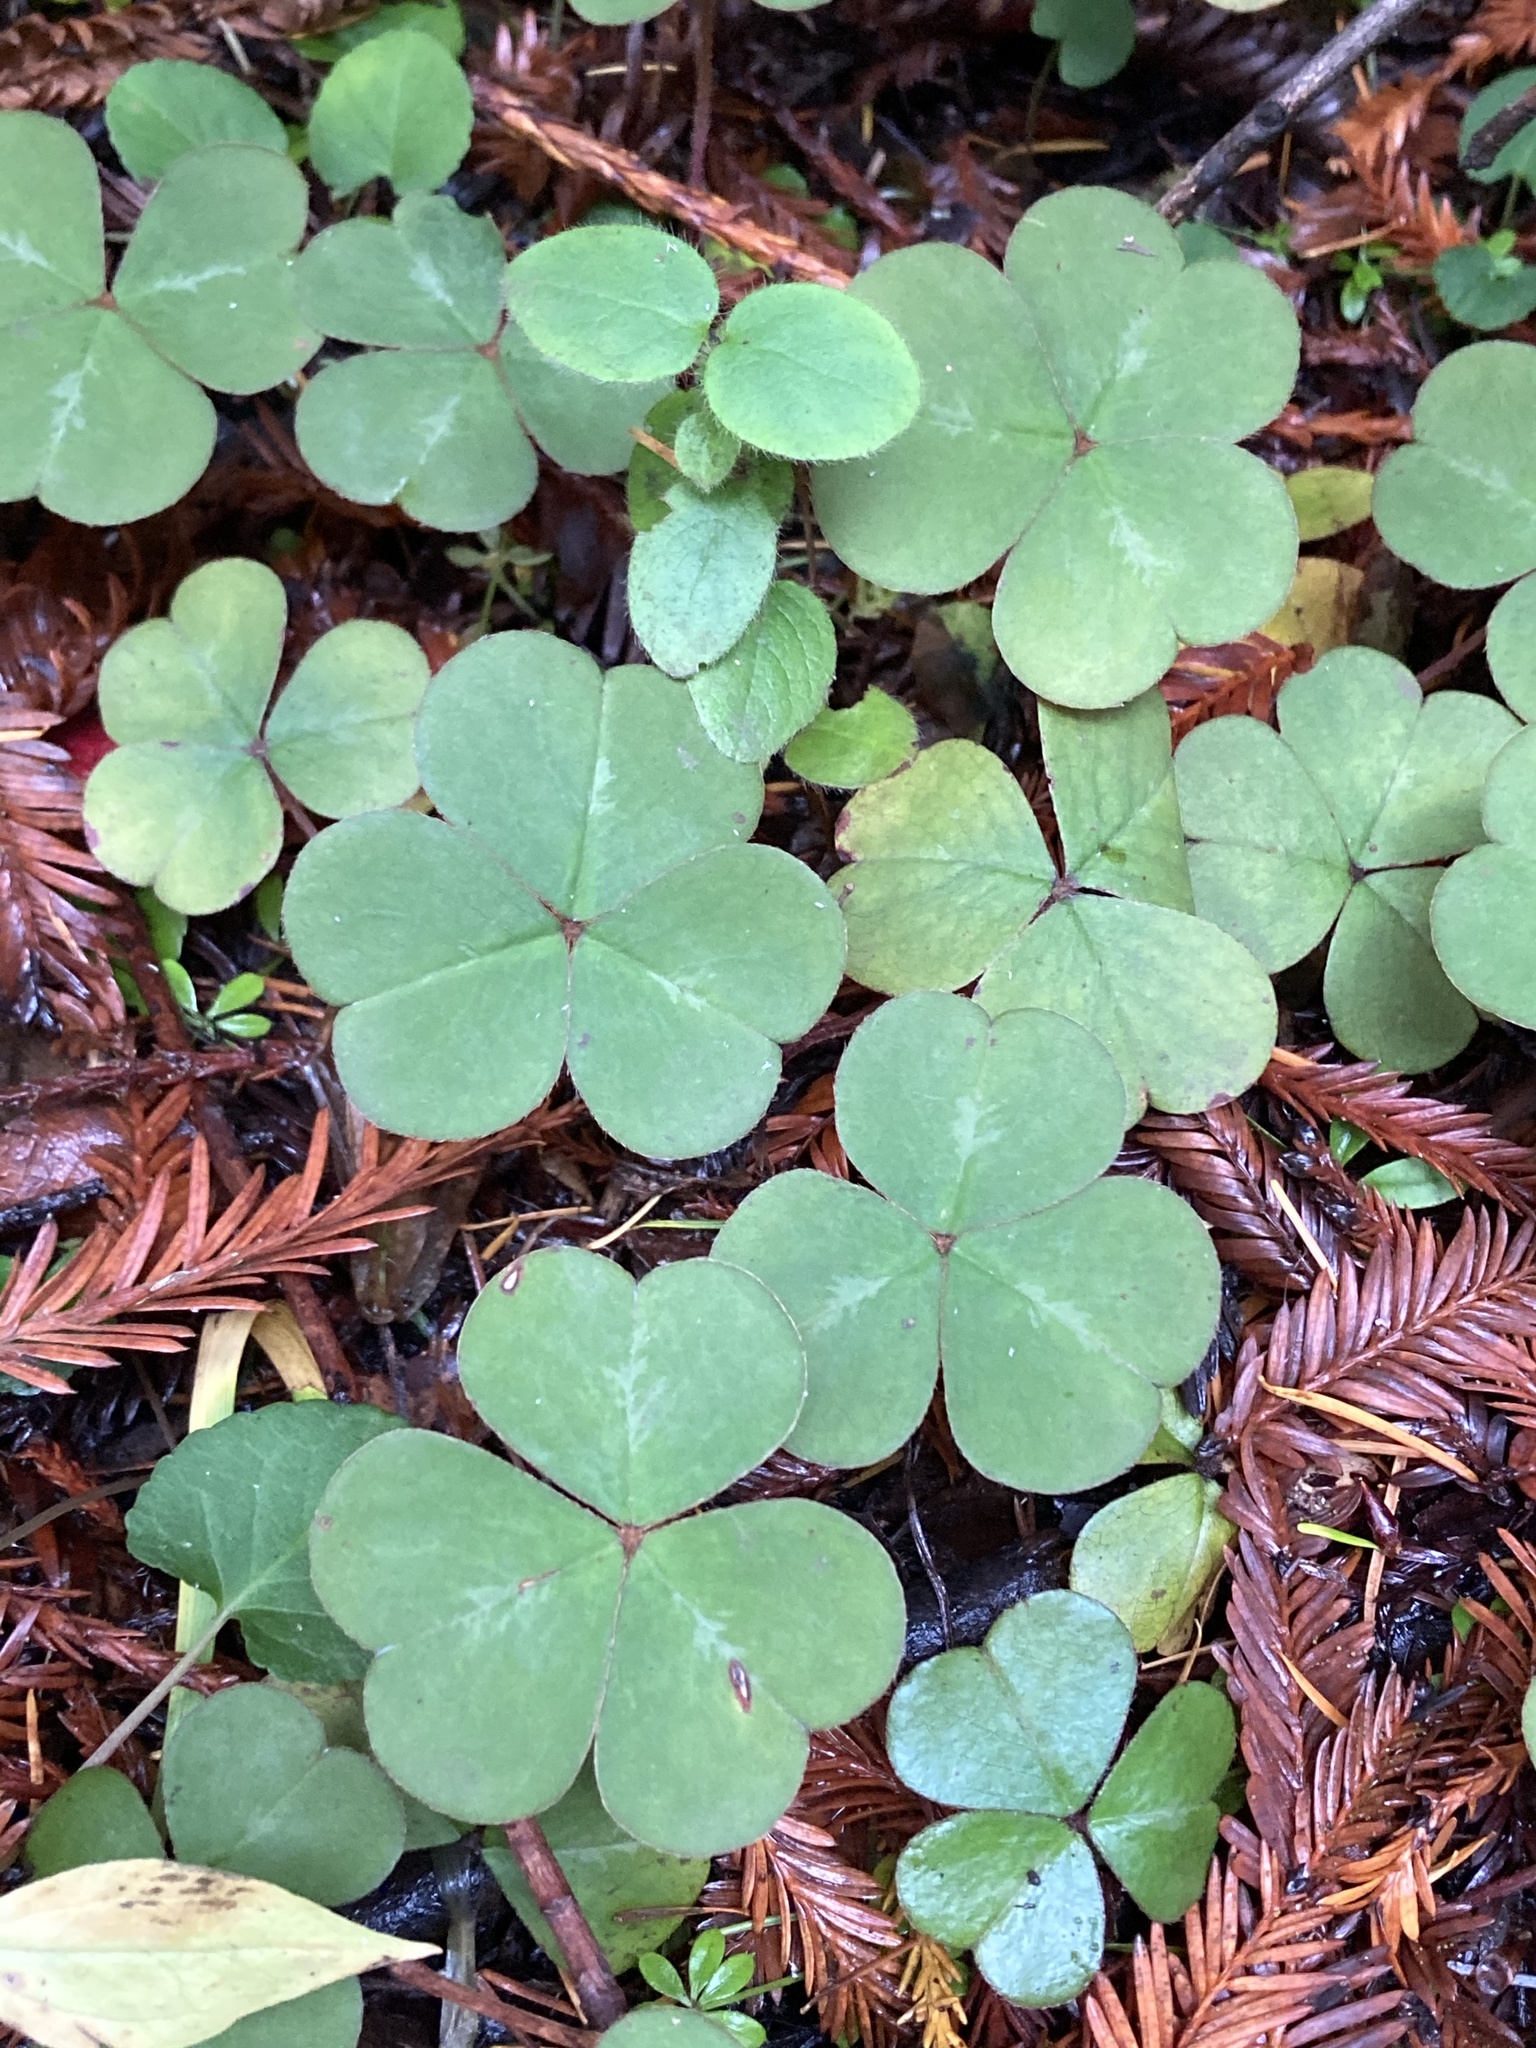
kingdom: Plantae
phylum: Tracheophyta
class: Magnoliopsida
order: Oxalidales
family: Oxalidaceae
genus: Oxalis
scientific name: Oxalis oregana
